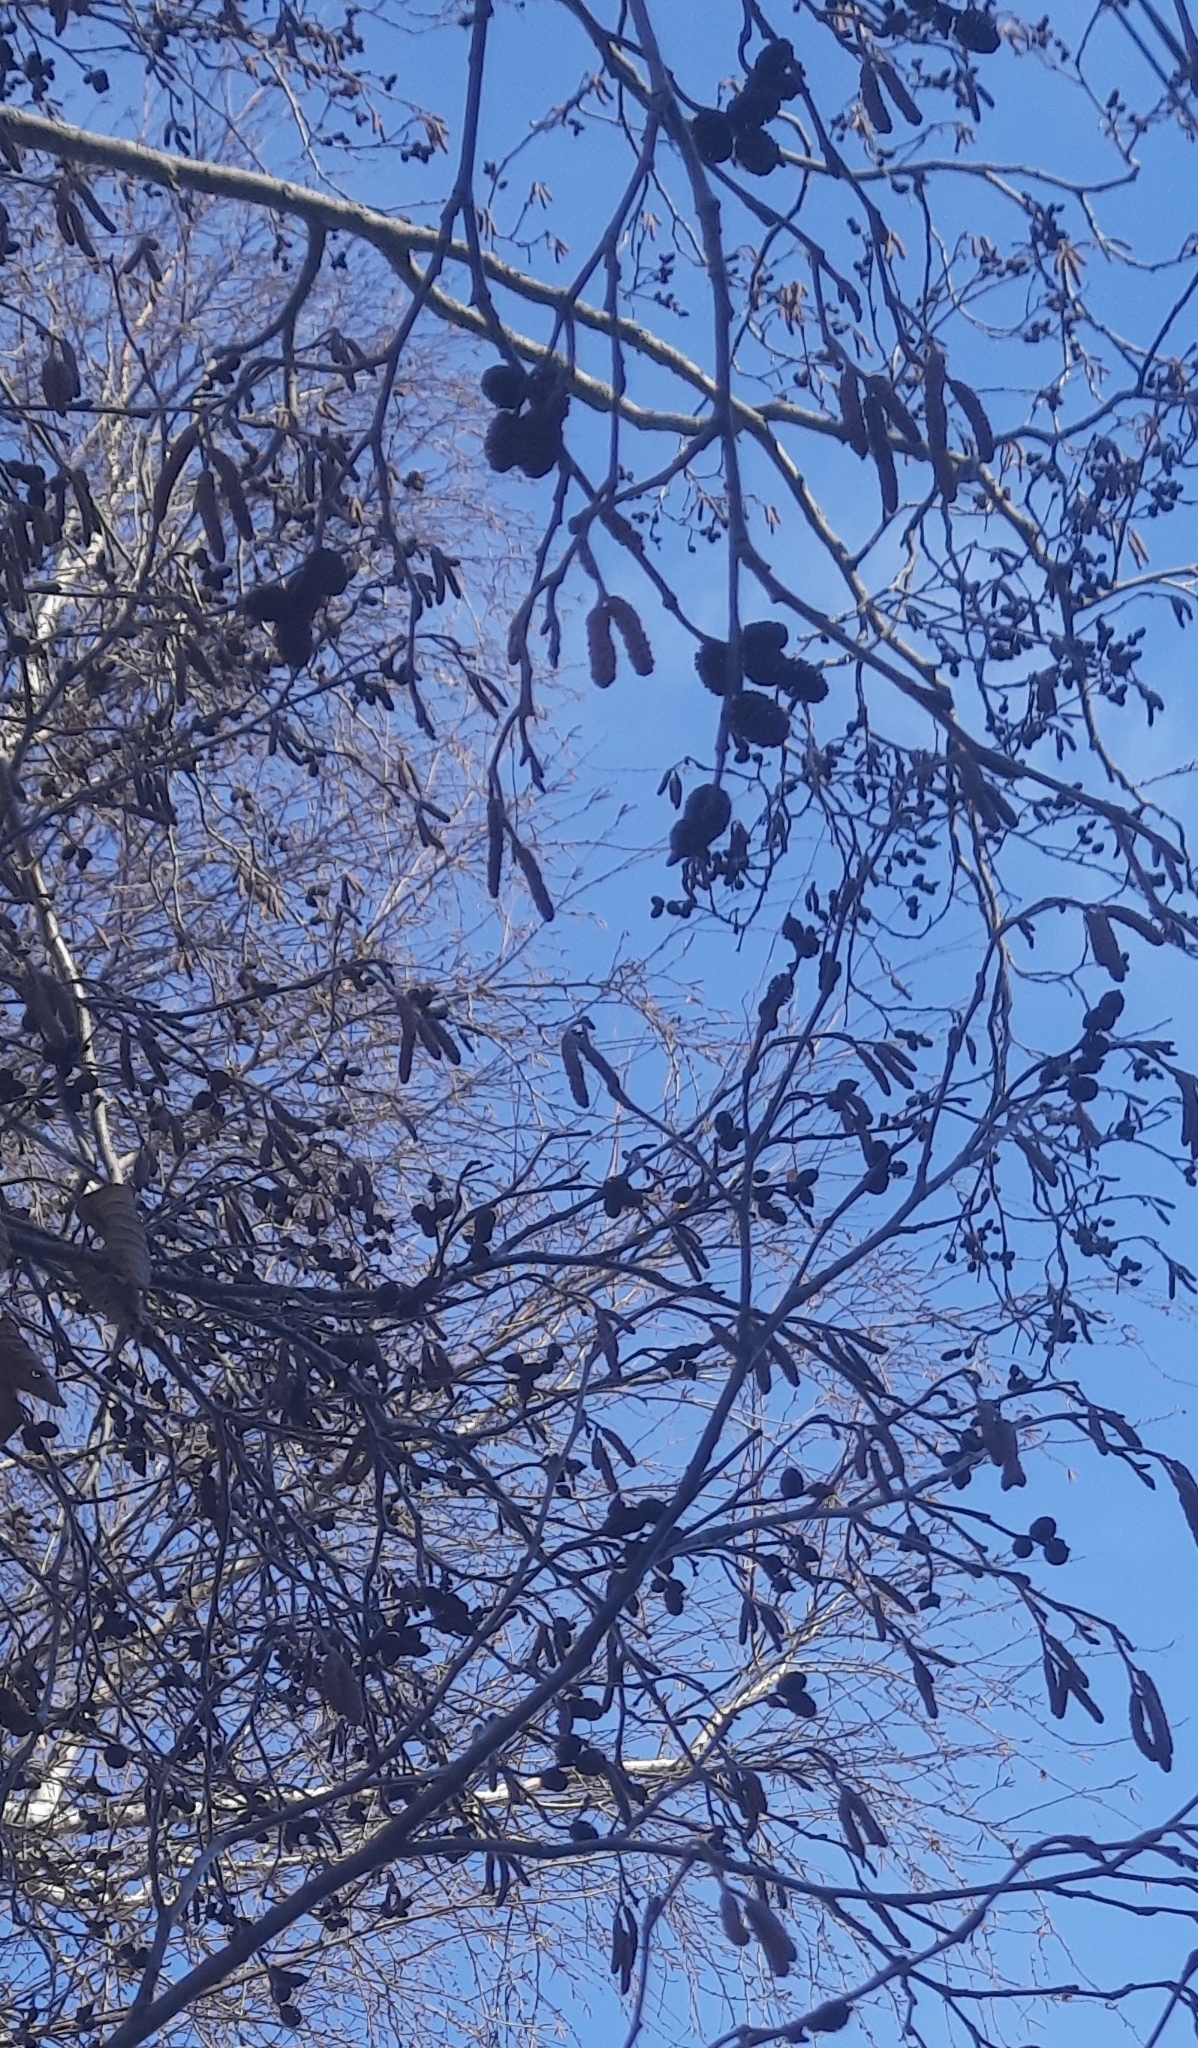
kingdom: Plantae
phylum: Tracheophyta
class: Magnoliopsida
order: Fagales
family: Betulaceae
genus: Alnus
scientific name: Alnus incana
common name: Grey alder
